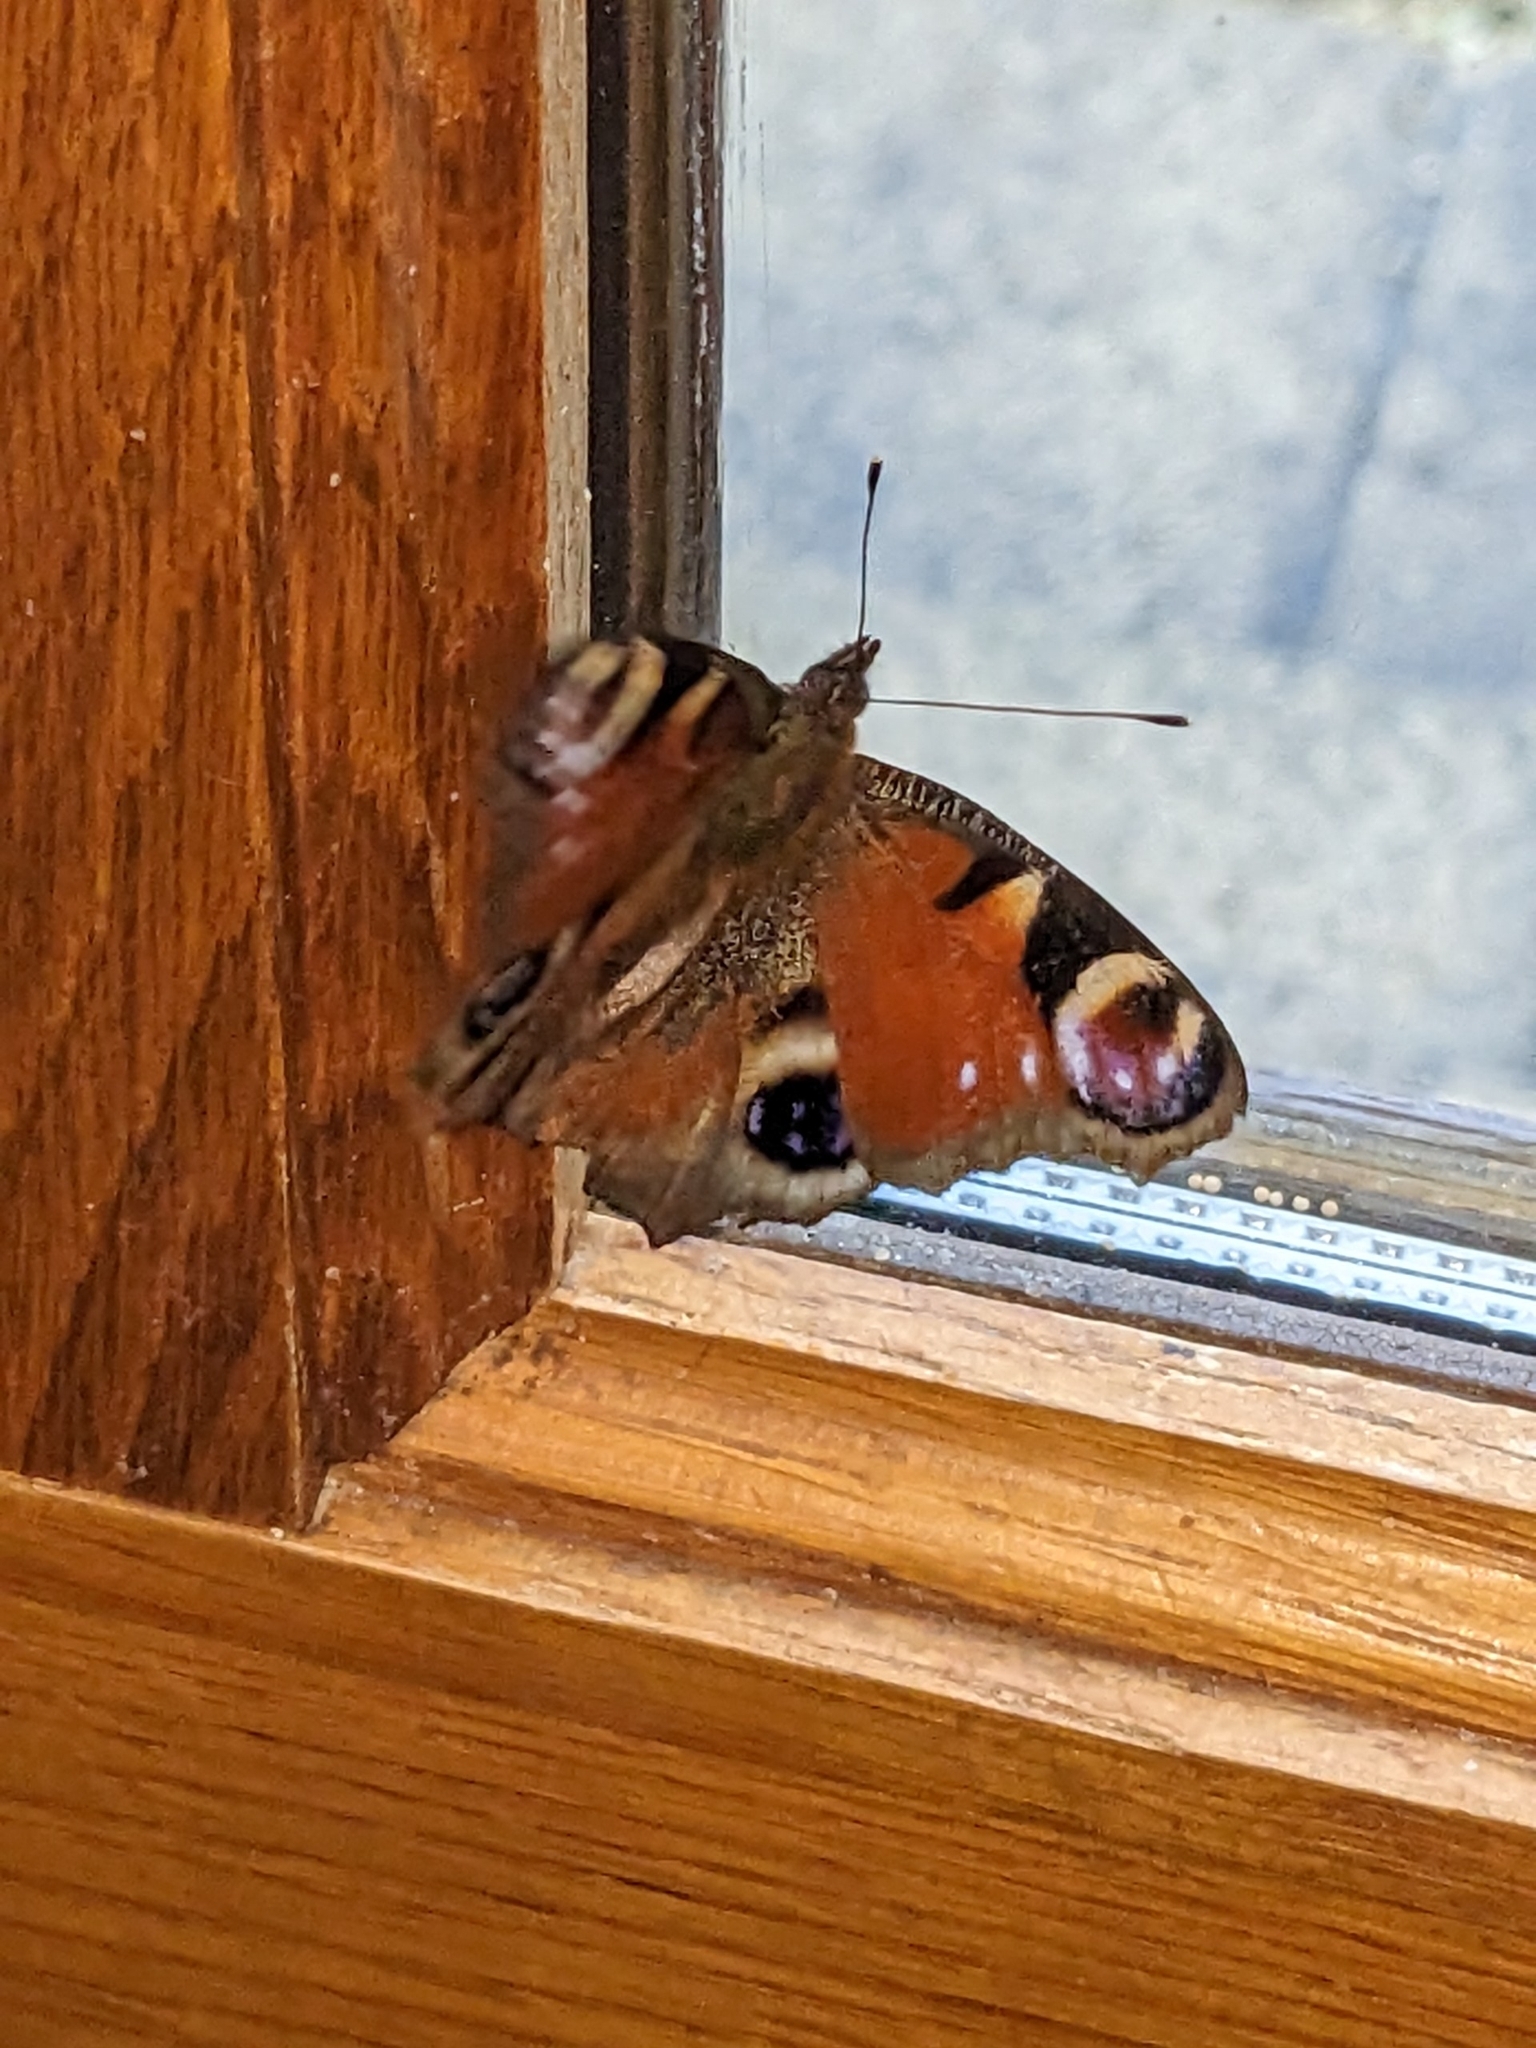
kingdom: Animalia
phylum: Arthropoda
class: Insecta
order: Lepidoptera
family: Nymphalidae
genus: Aglais
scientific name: Aglais io
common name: Peacock
